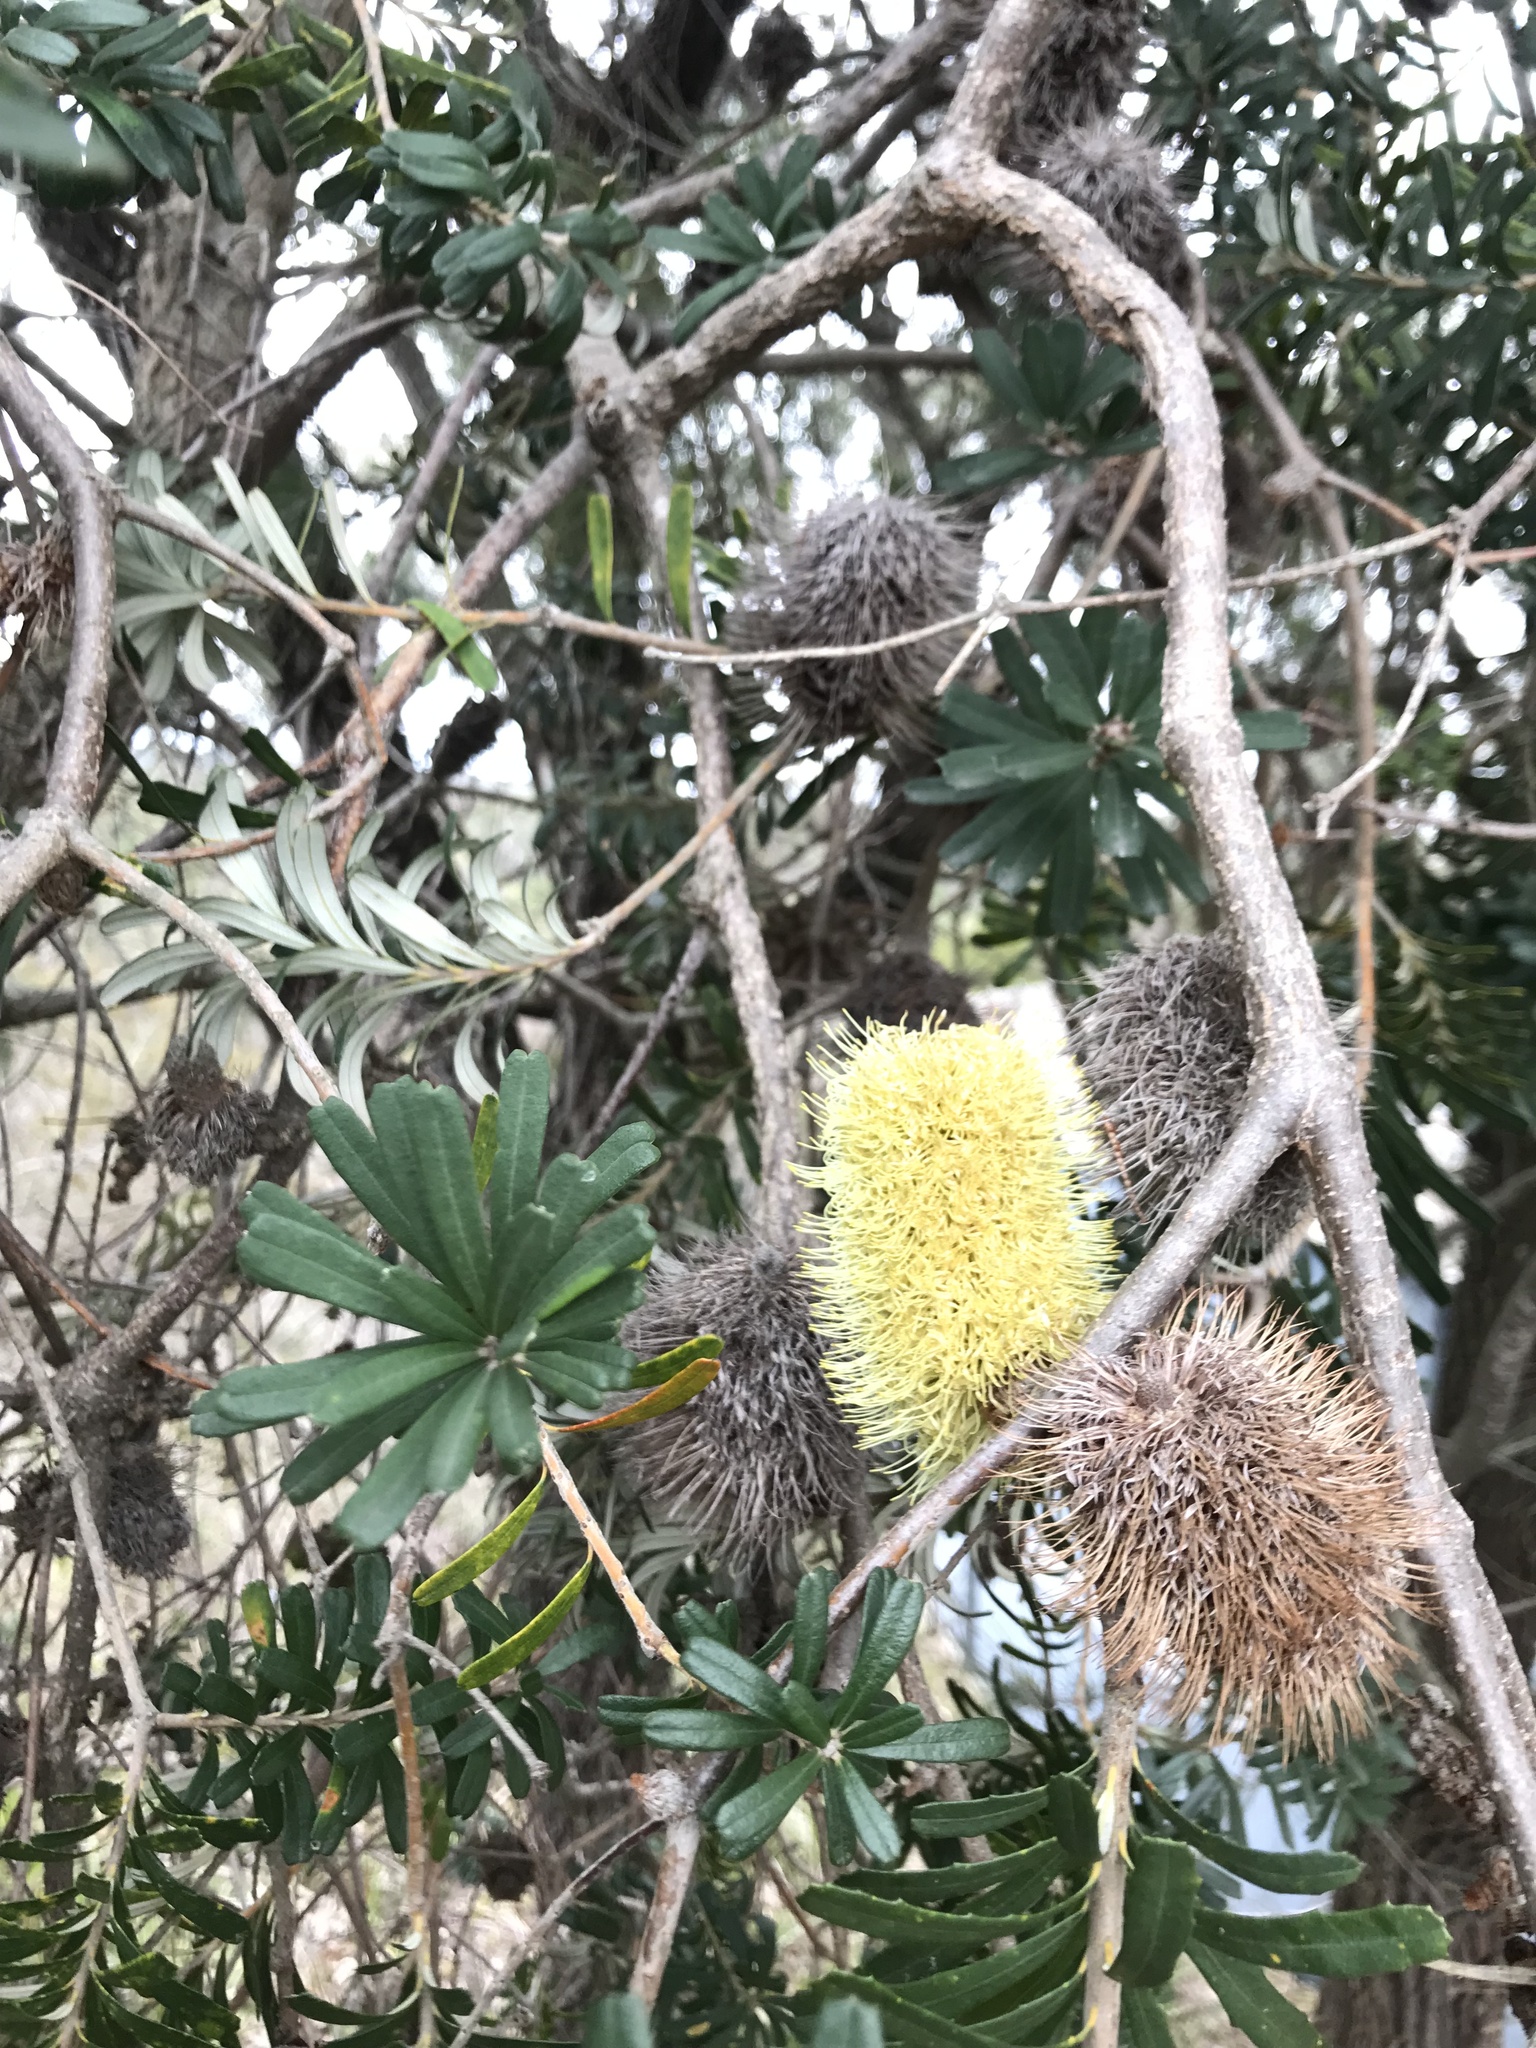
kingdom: Plantae
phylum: Tracheophyta
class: Magnoliopsida
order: Proteales
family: Proteaceae
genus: Banksia
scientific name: Banksia marginata
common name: Silver banksia
